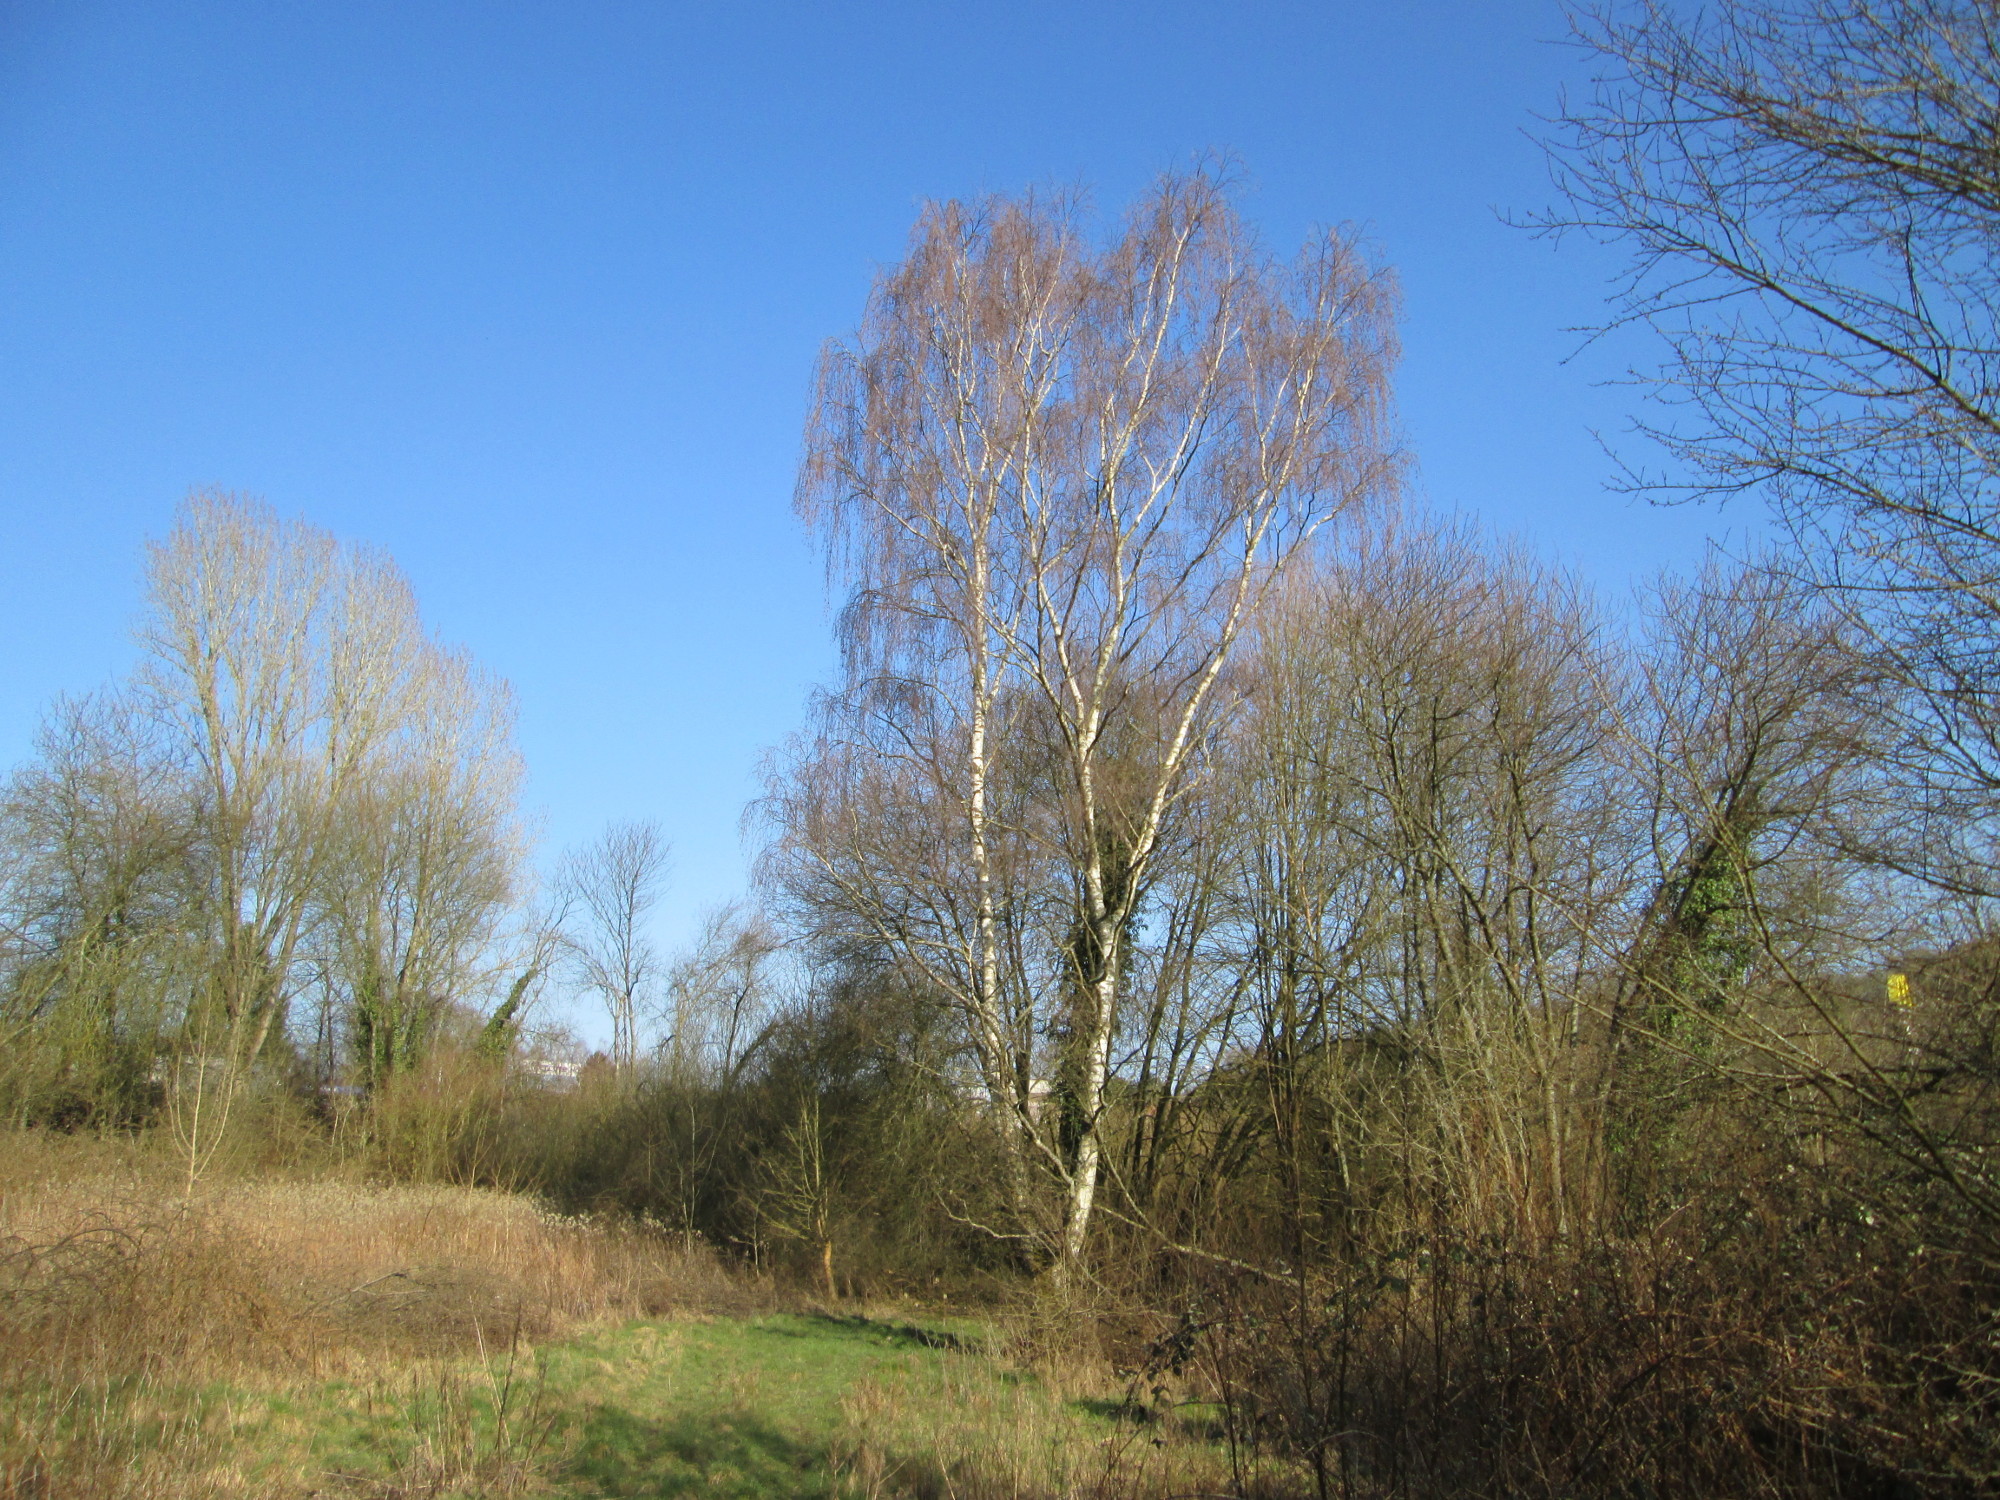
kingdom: Plantae
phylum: Tracheophyta
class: Magnoliopsida
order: Fagales
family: Betulaceae
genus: Betula
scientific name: Betula pendula
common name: Silver birch
